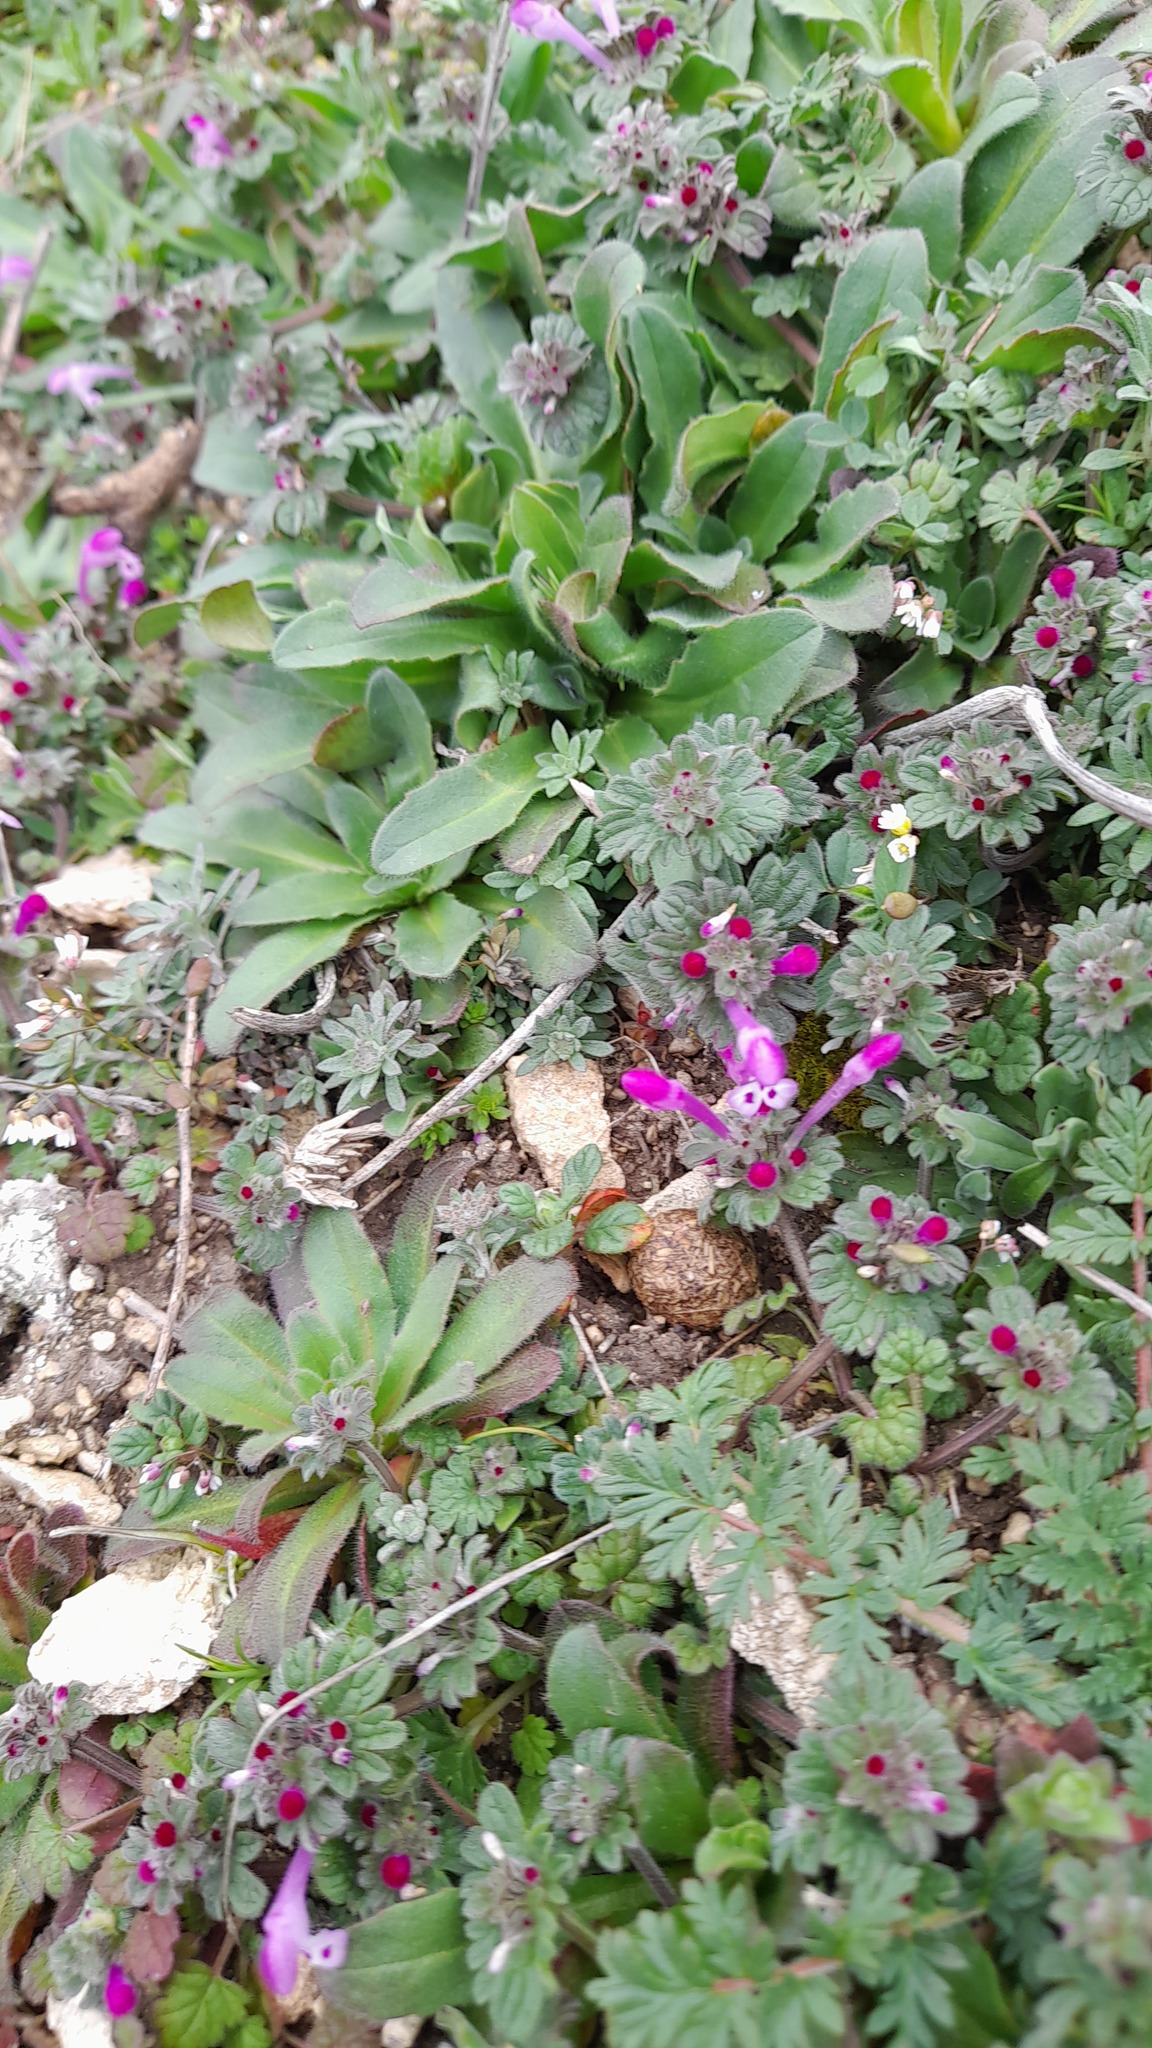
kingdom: Plantae
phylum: Tracheophyta
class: Magnoliopsida
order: Lamiales
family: Lamiaceae
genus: Lamium
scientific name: Lamium amplexicaule
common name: Henbit dead-nettle
